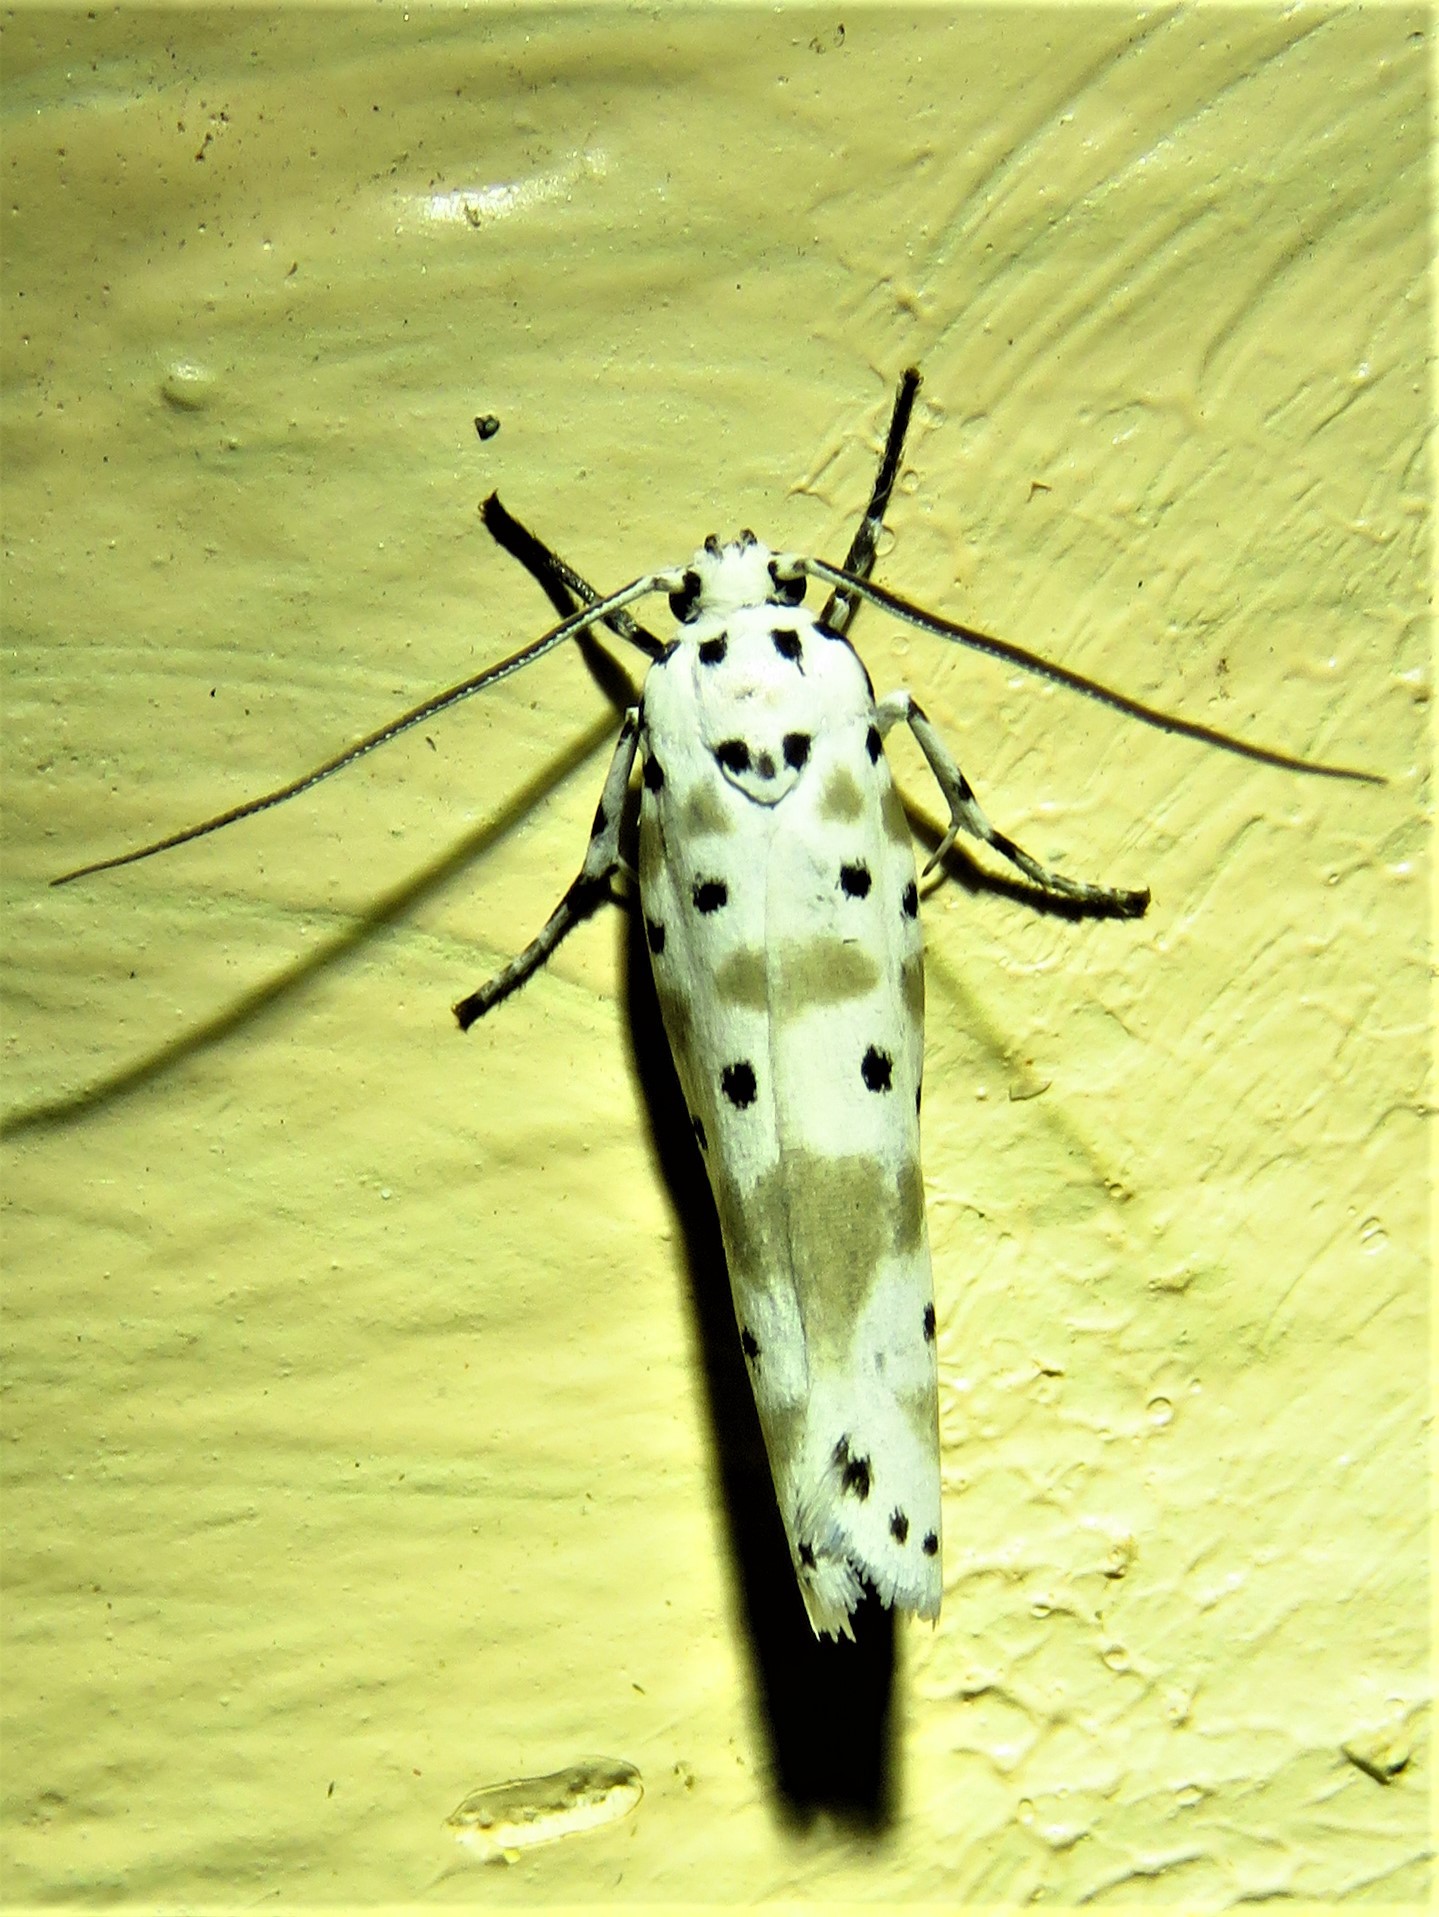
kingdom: Animalia
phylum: Arthropoda
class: Insecta
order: Lepidoptera
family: Ethmiidae
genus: Ethmia
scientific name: Ethmia kagamegensis
